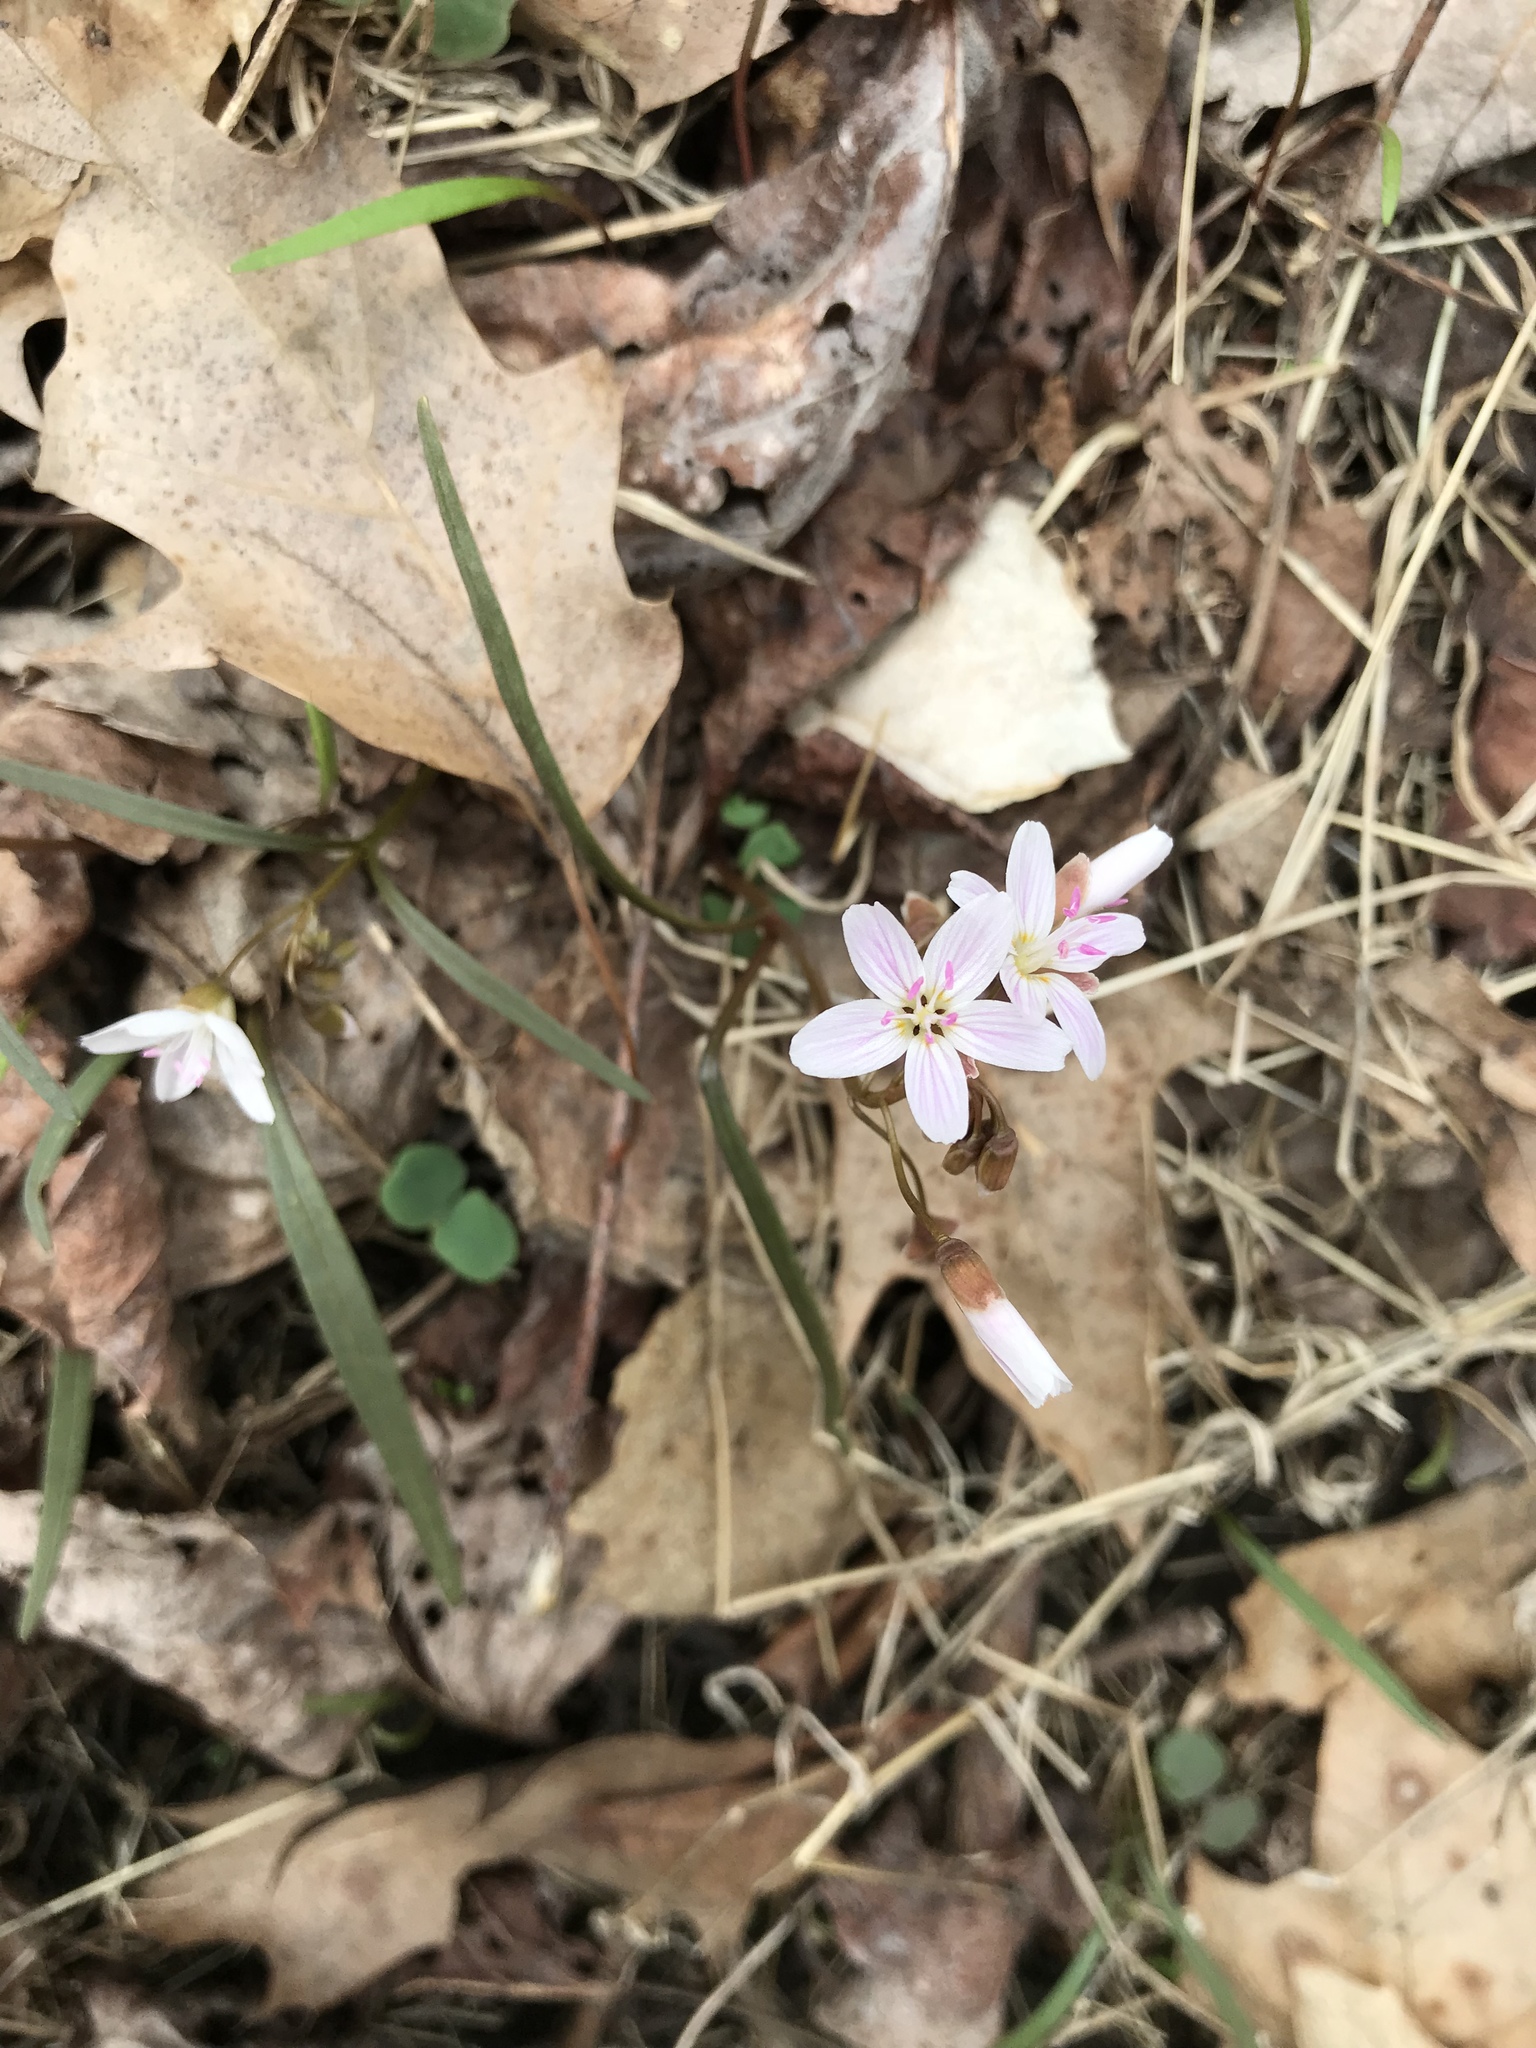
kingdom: Plantae
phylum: Tracheophyta
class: Magnoliopsida
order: Caryophyllales
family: Montiaceae
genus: Claytonia
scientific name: Claytonia virginica
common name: Virginia springbeauty
